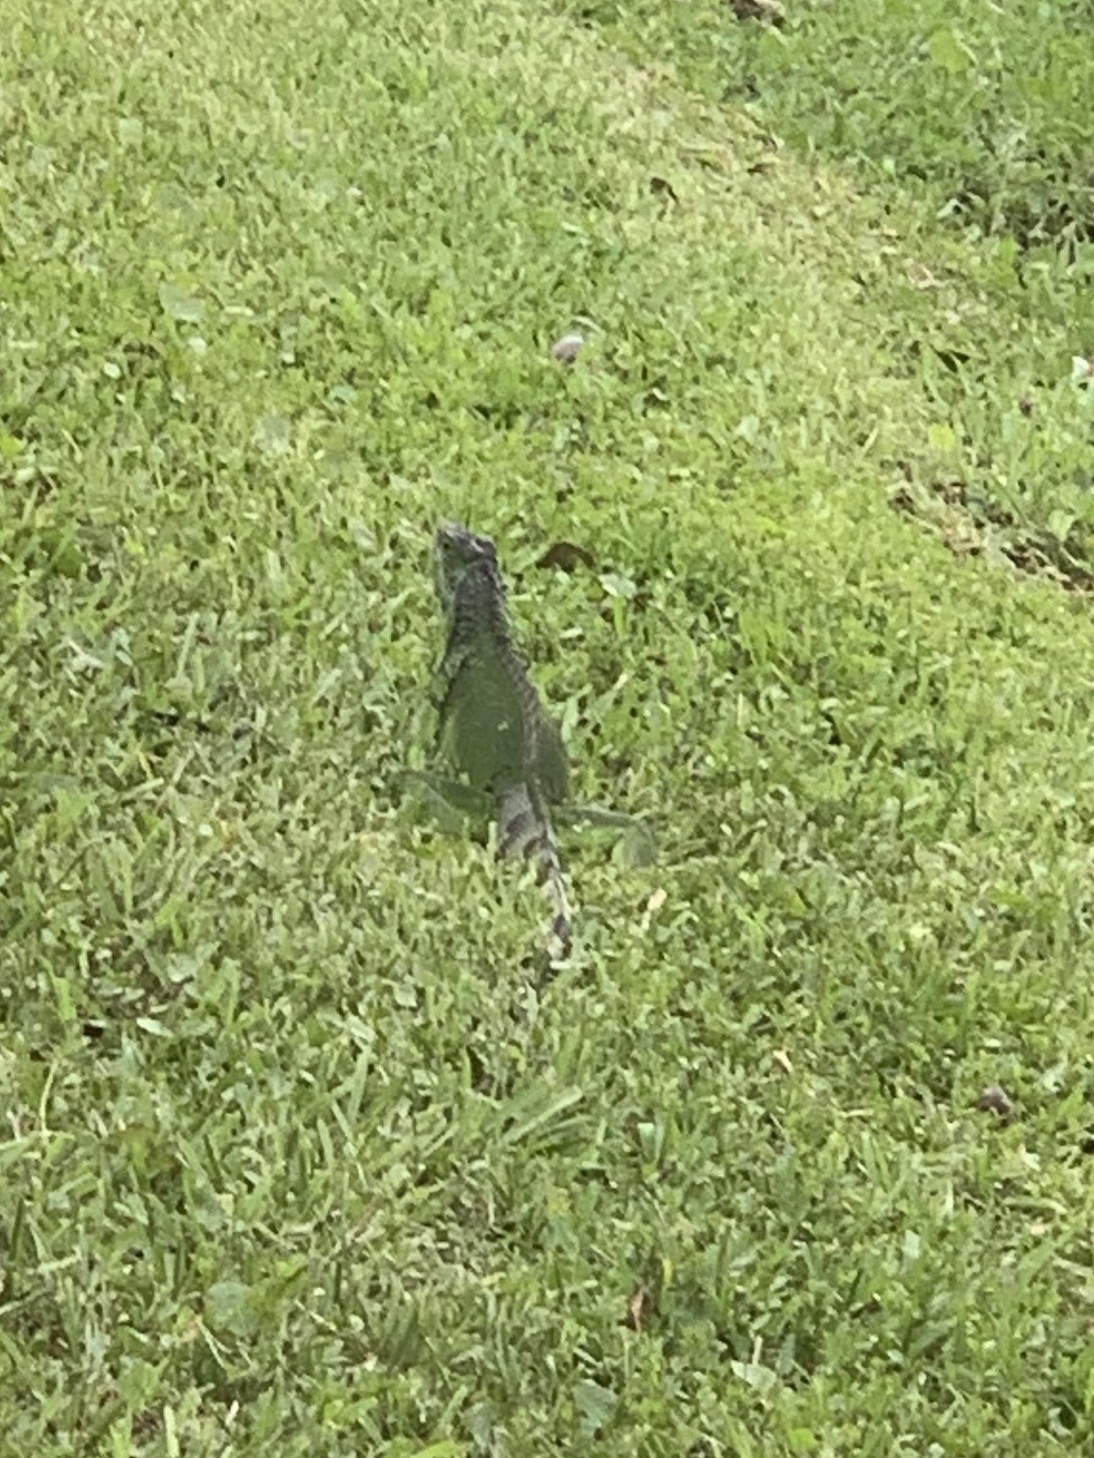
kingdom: Animalia
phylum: Chordata
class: Squamata
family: Iguanidae
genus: Iguana
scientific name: Iguana iguana
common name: Green iguana
